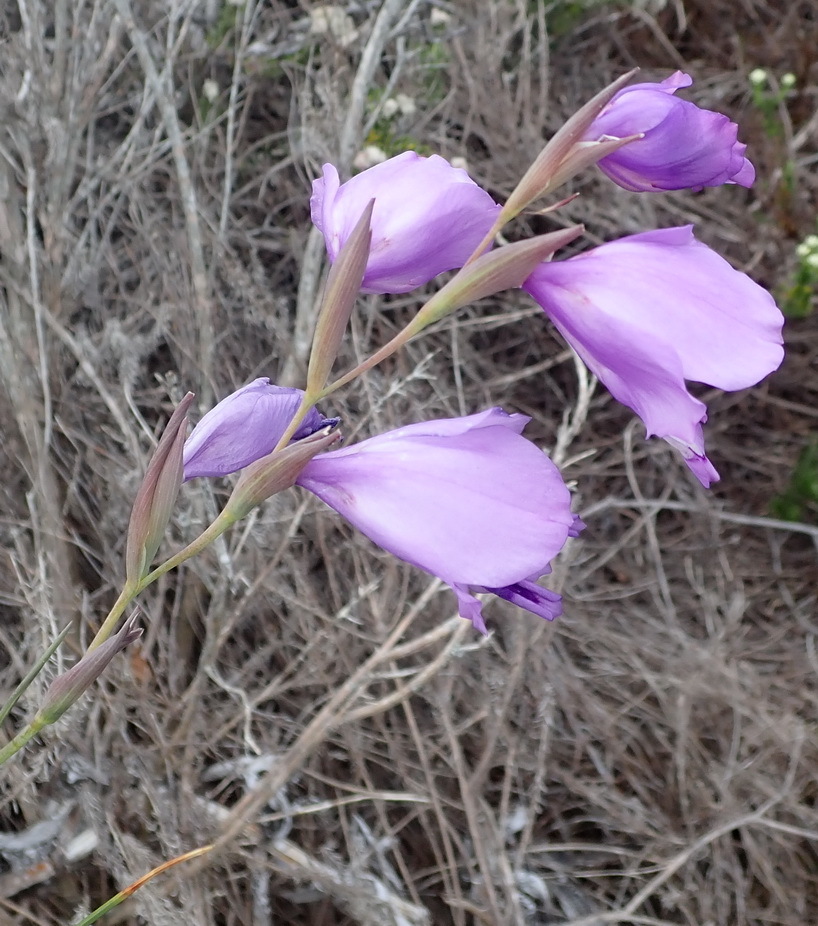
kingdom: Plantae
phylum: Tracheophyta
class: Liliopsida
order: Asparagales
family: Iridaceae
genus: Gladiolus
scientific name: Gladiolus rogersii
